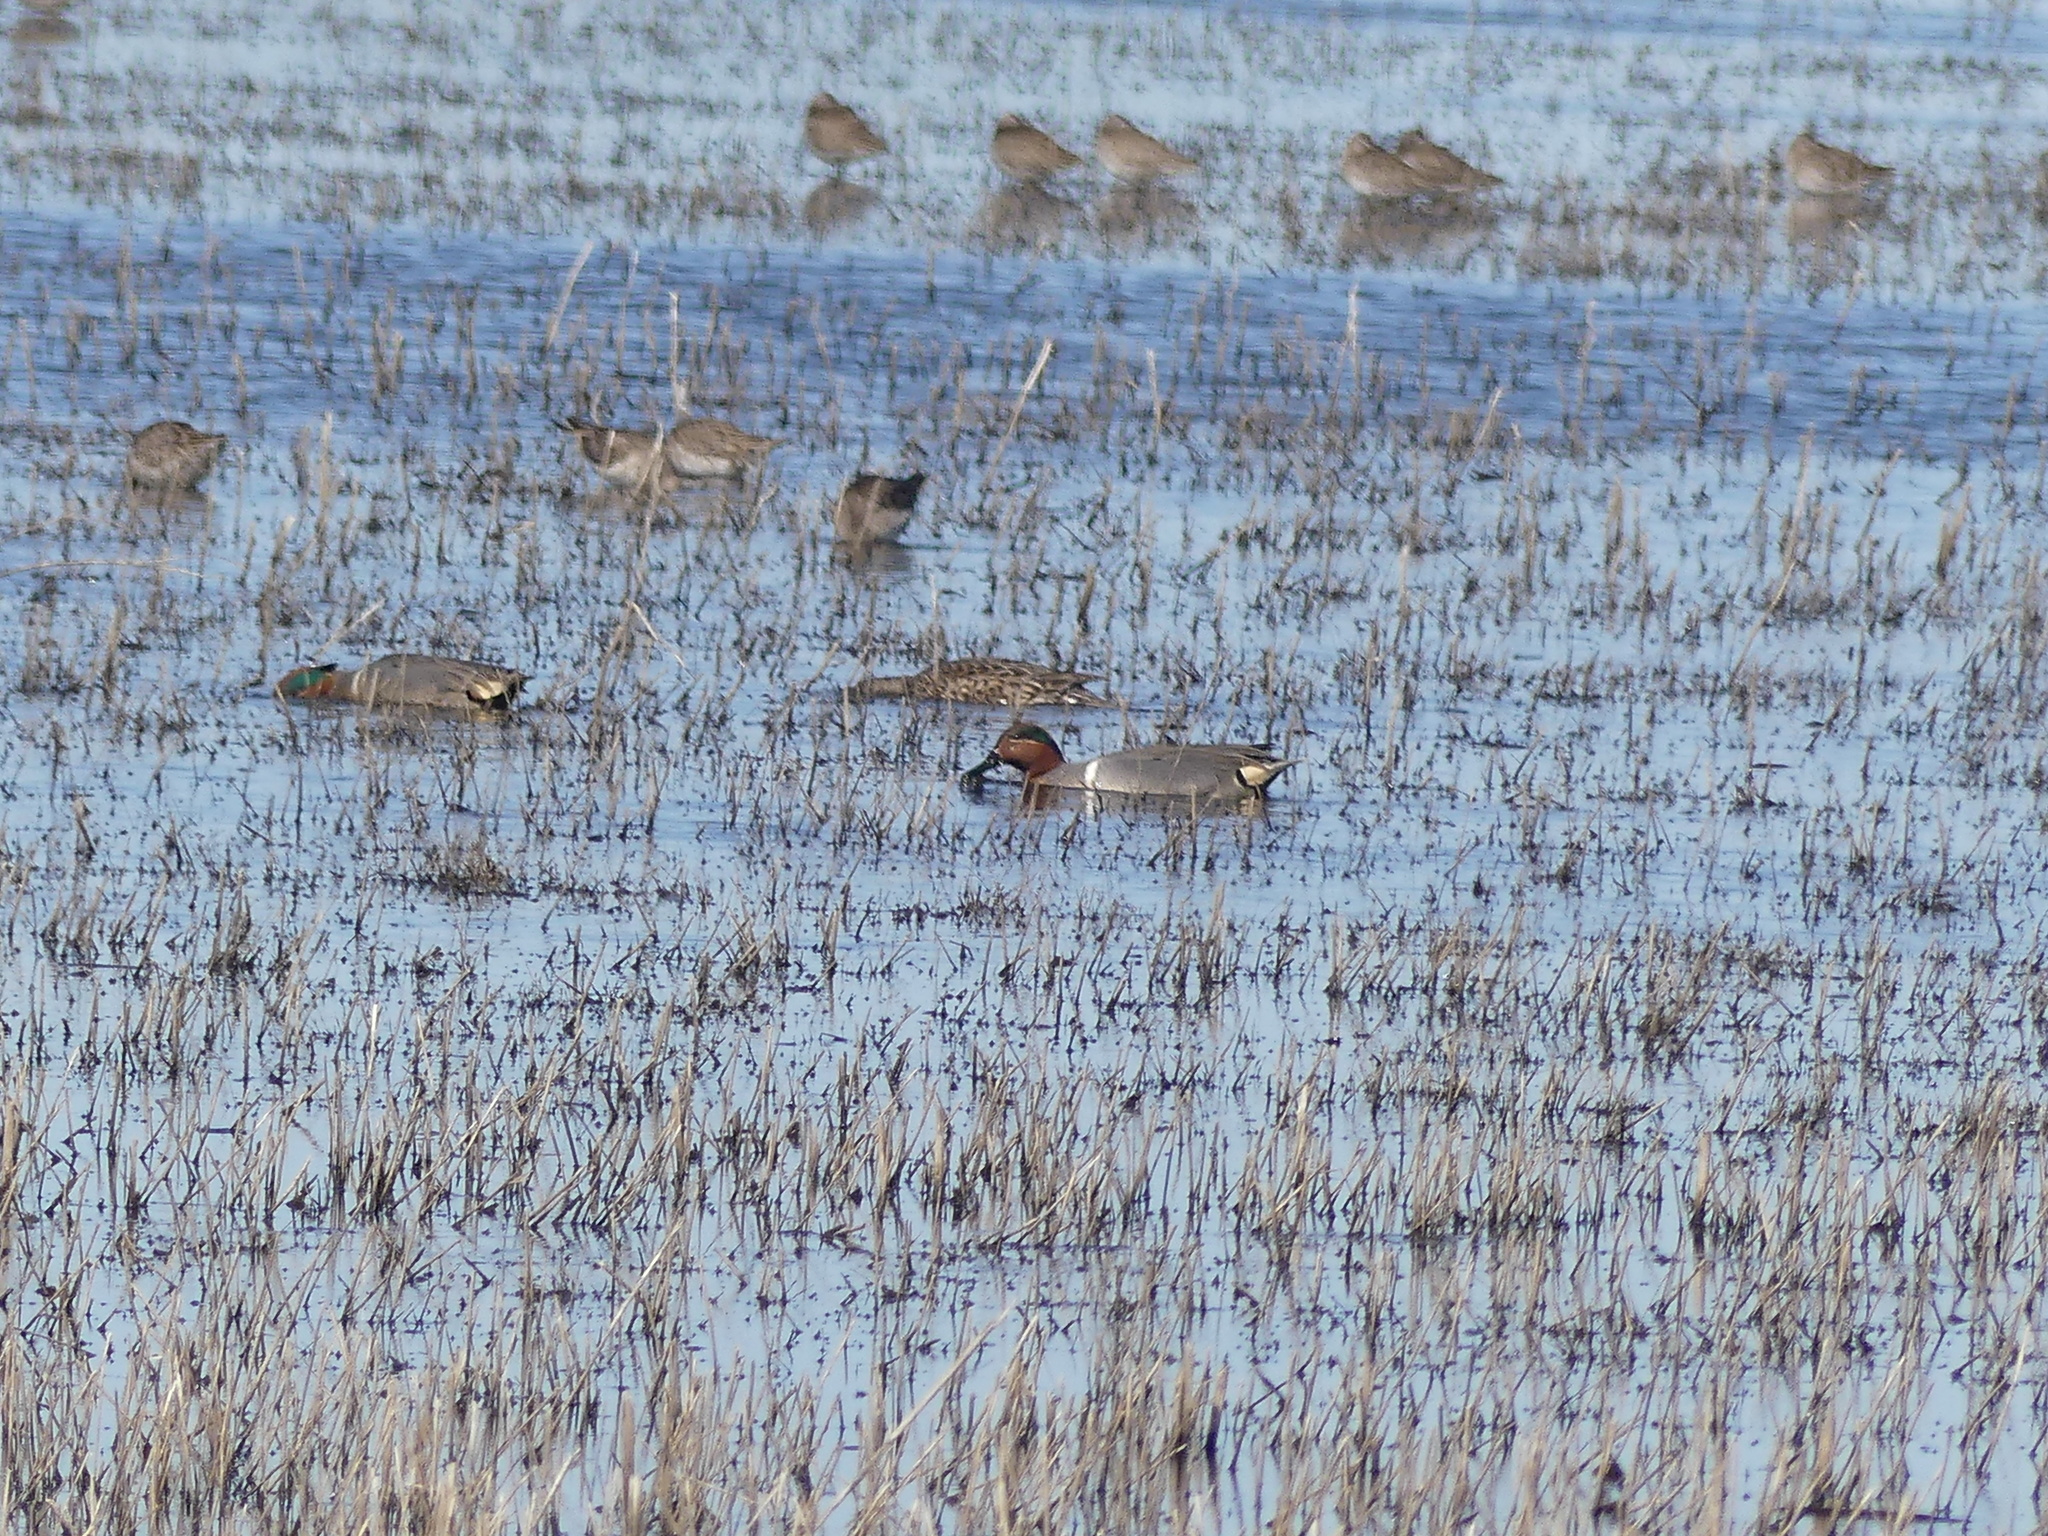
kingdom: Animalia
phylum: Chordata
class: Aves
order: Anseriformes
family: Anatidae
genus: Anas
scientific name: Anas crecca
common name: Eurasian teal
